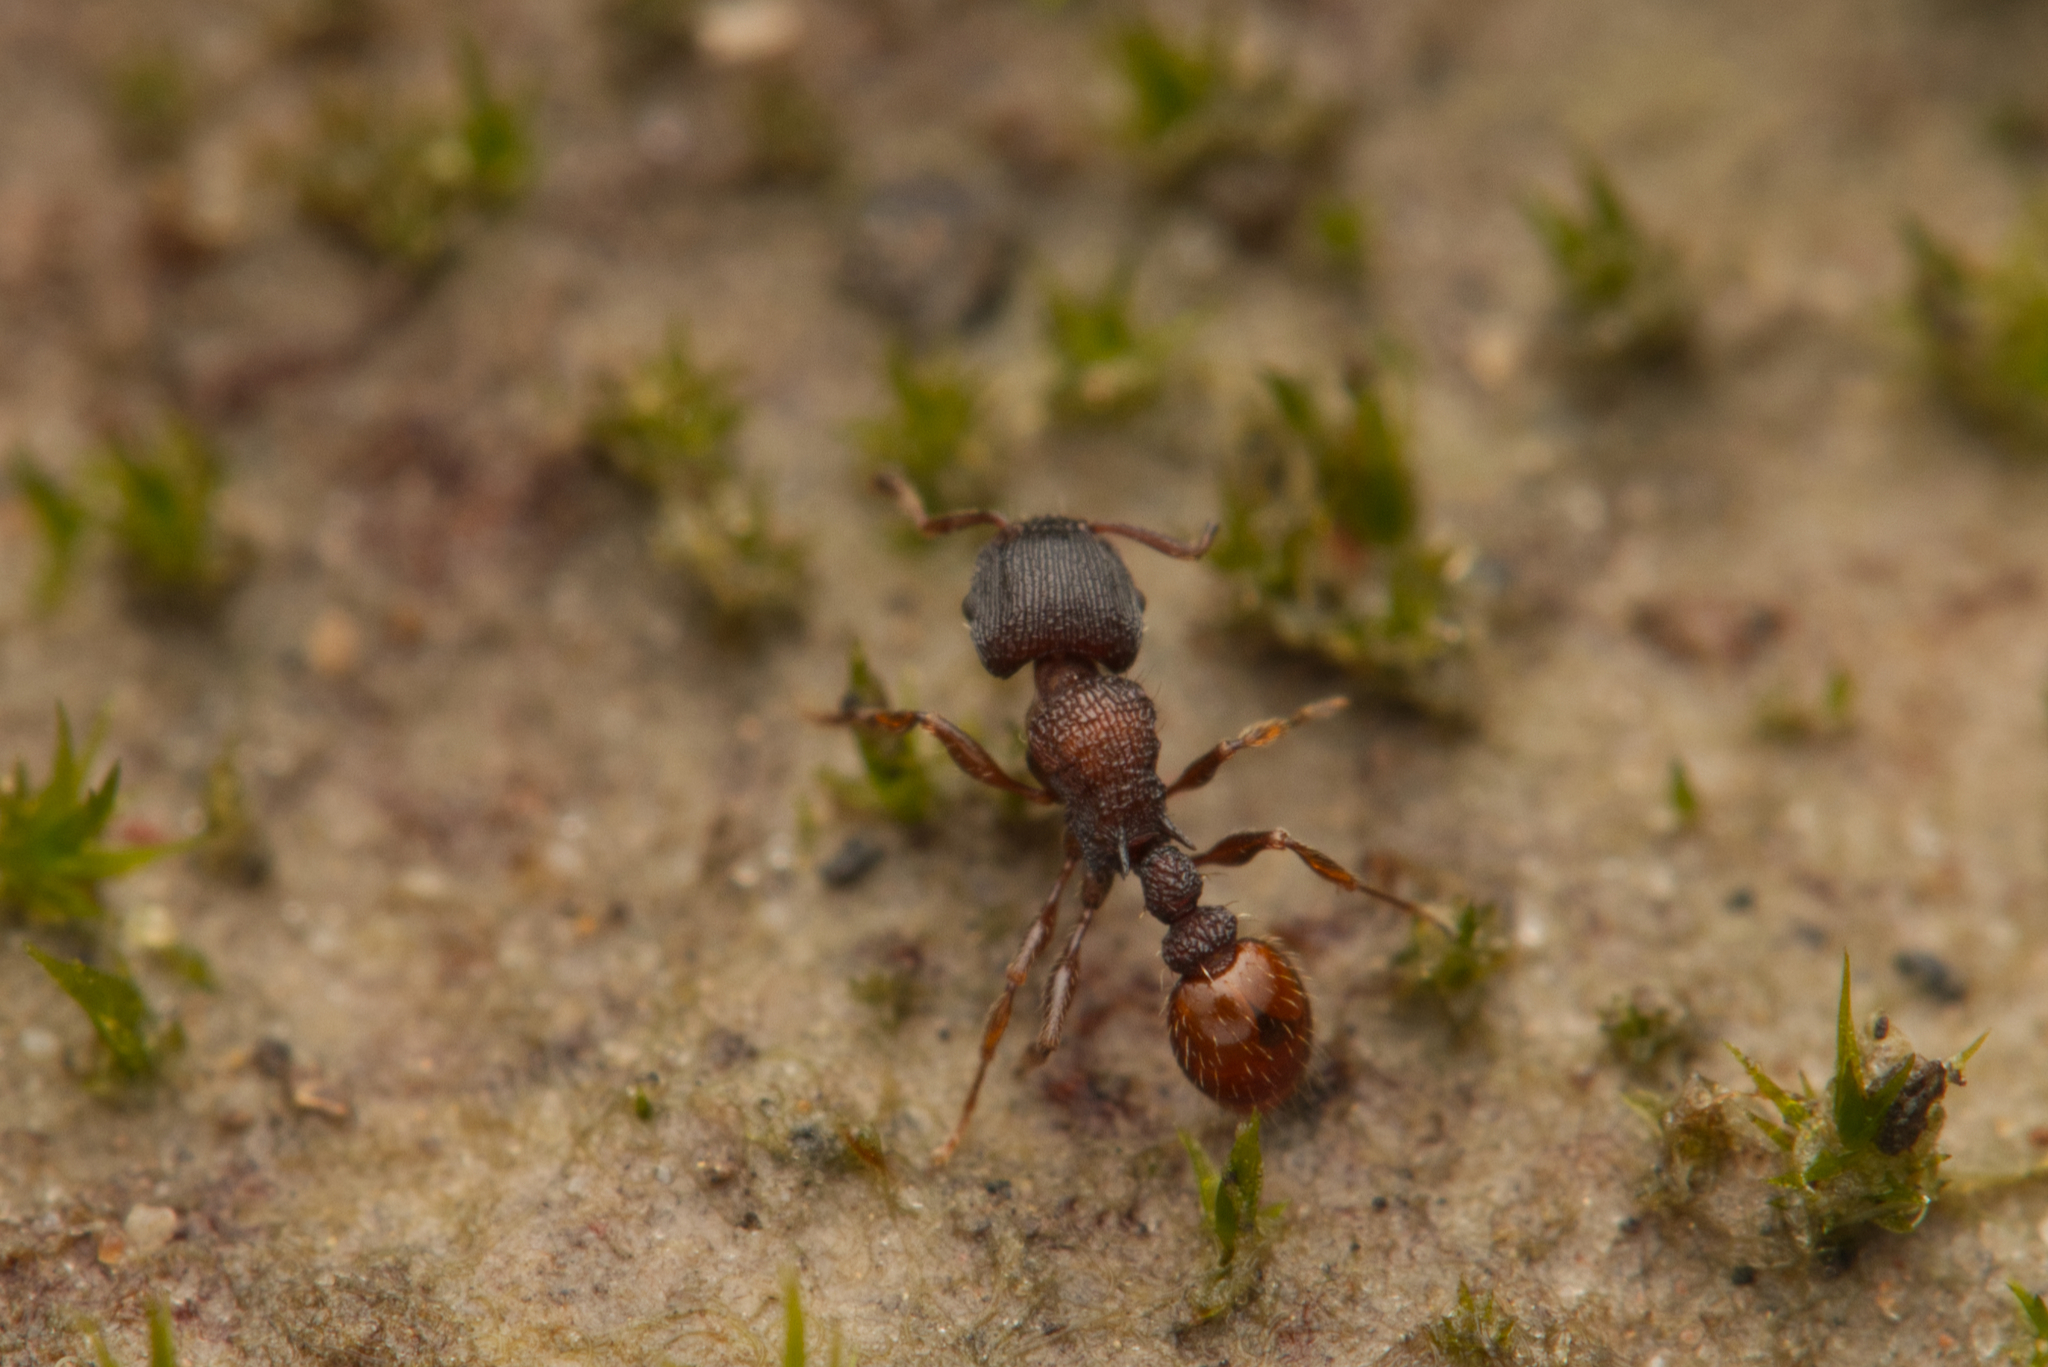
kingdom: Animalia
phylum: Arthropoda
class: Insecta
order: Hymenoptera
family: Formicidae
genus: Tetramorium
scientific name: Tetramorium impressum
